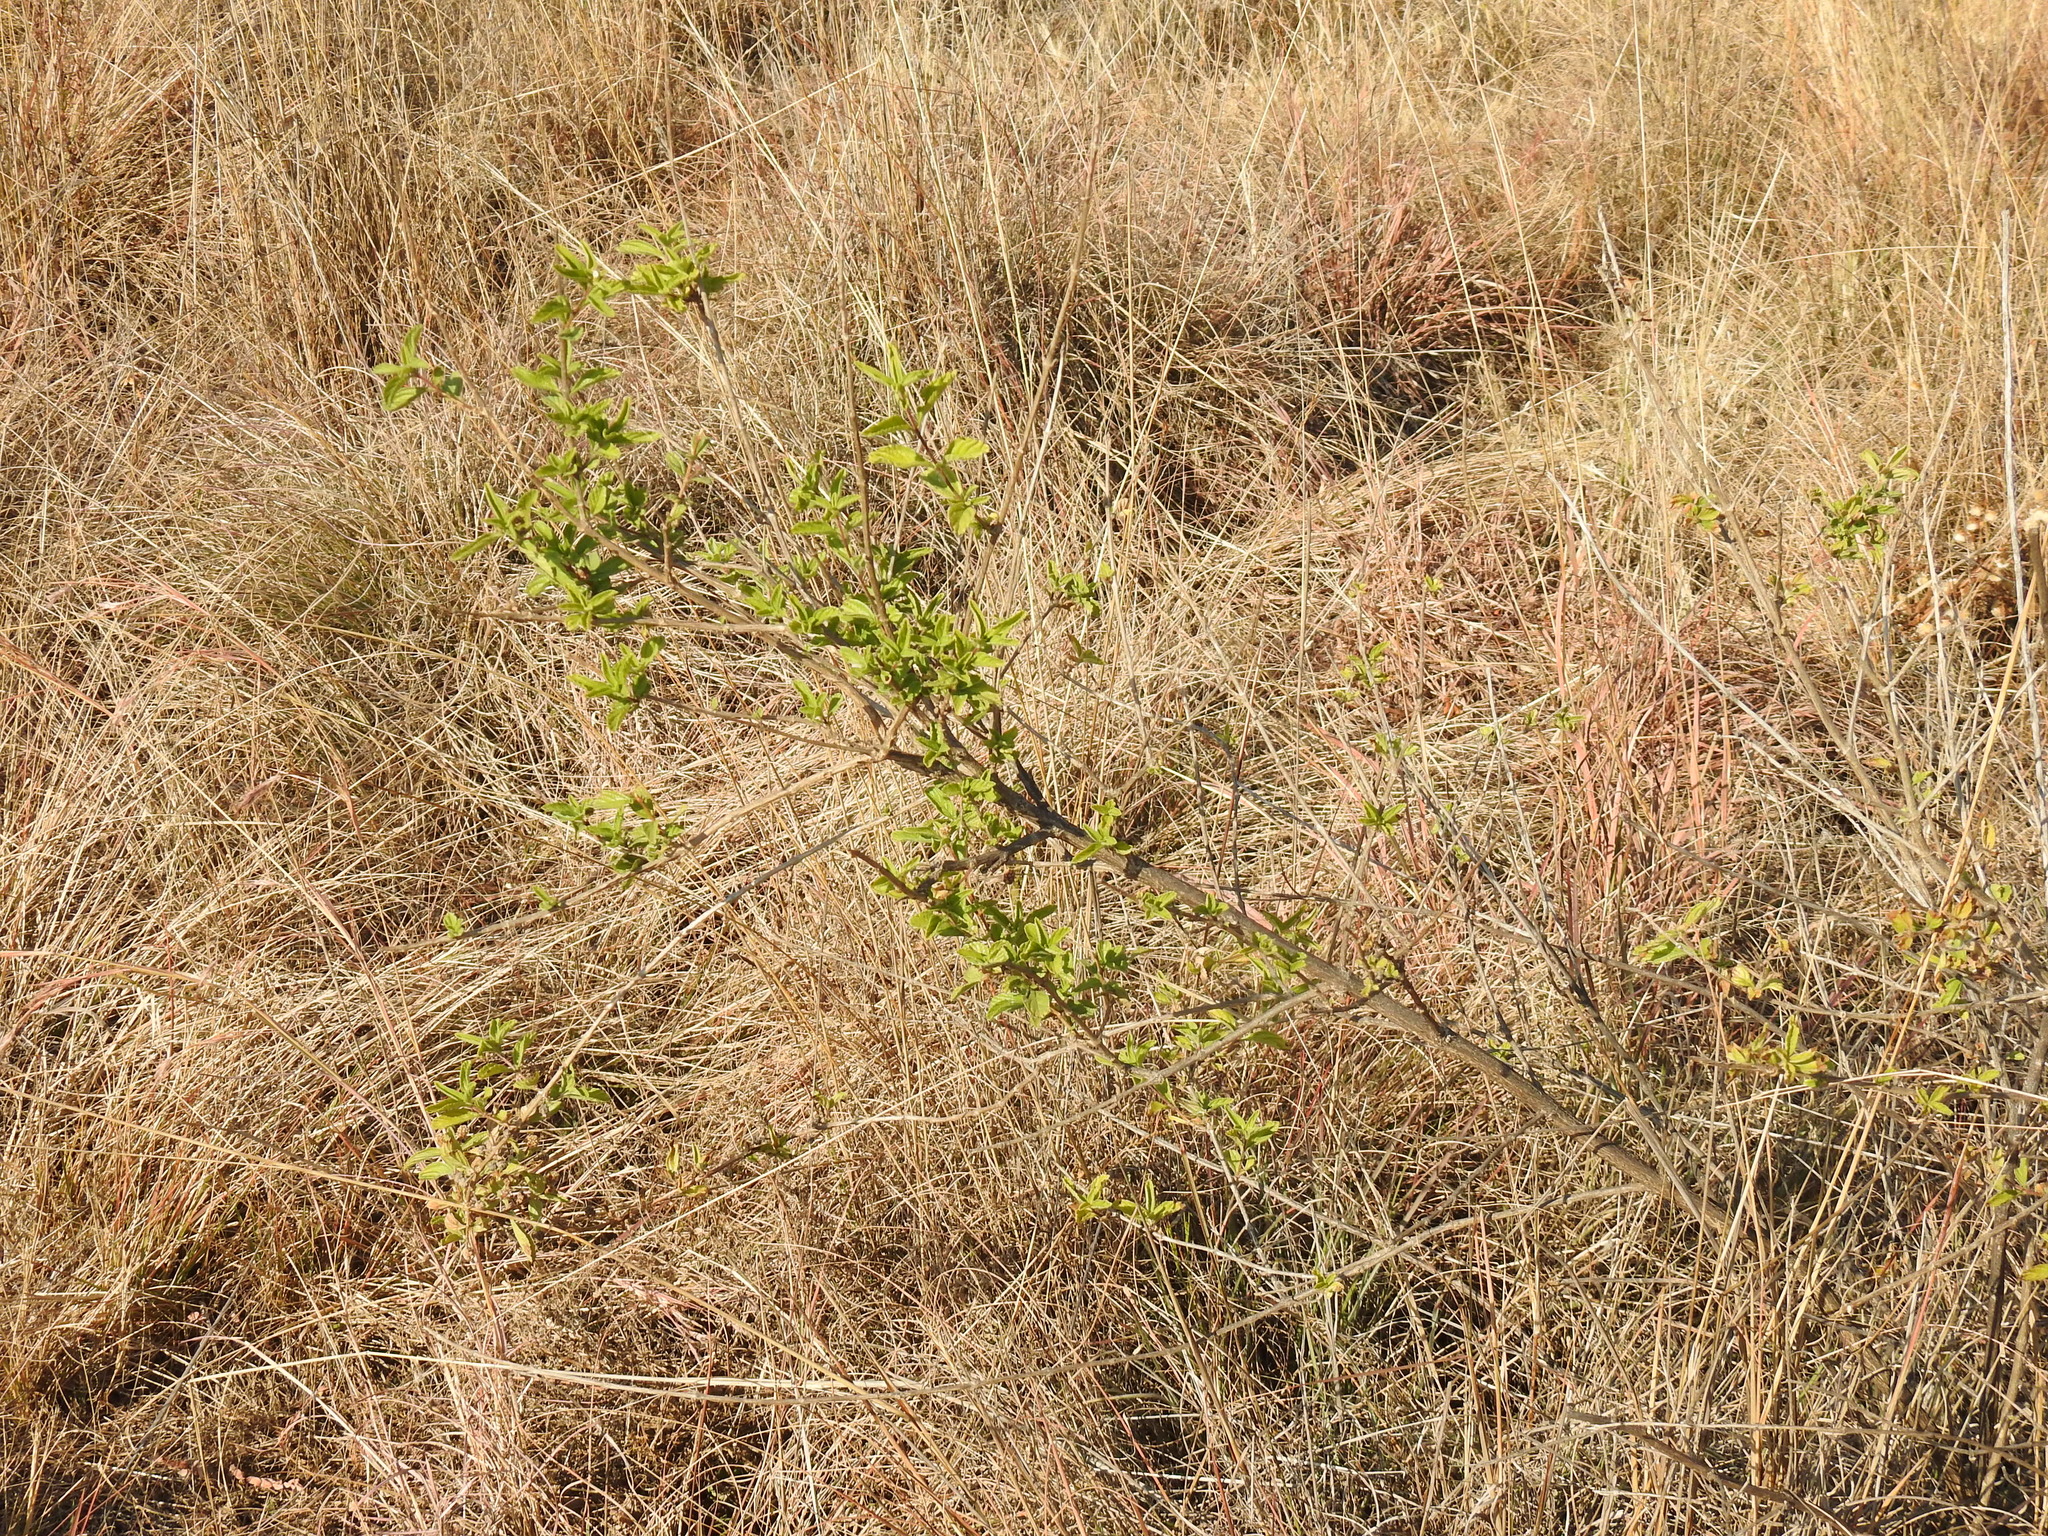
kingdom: Plantae
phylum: Tracheophyta
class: Magnoliopsida
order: Lamiales
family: Verbenaceae
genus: Lippia
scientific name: Lippia javanica
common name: Lemonbush
